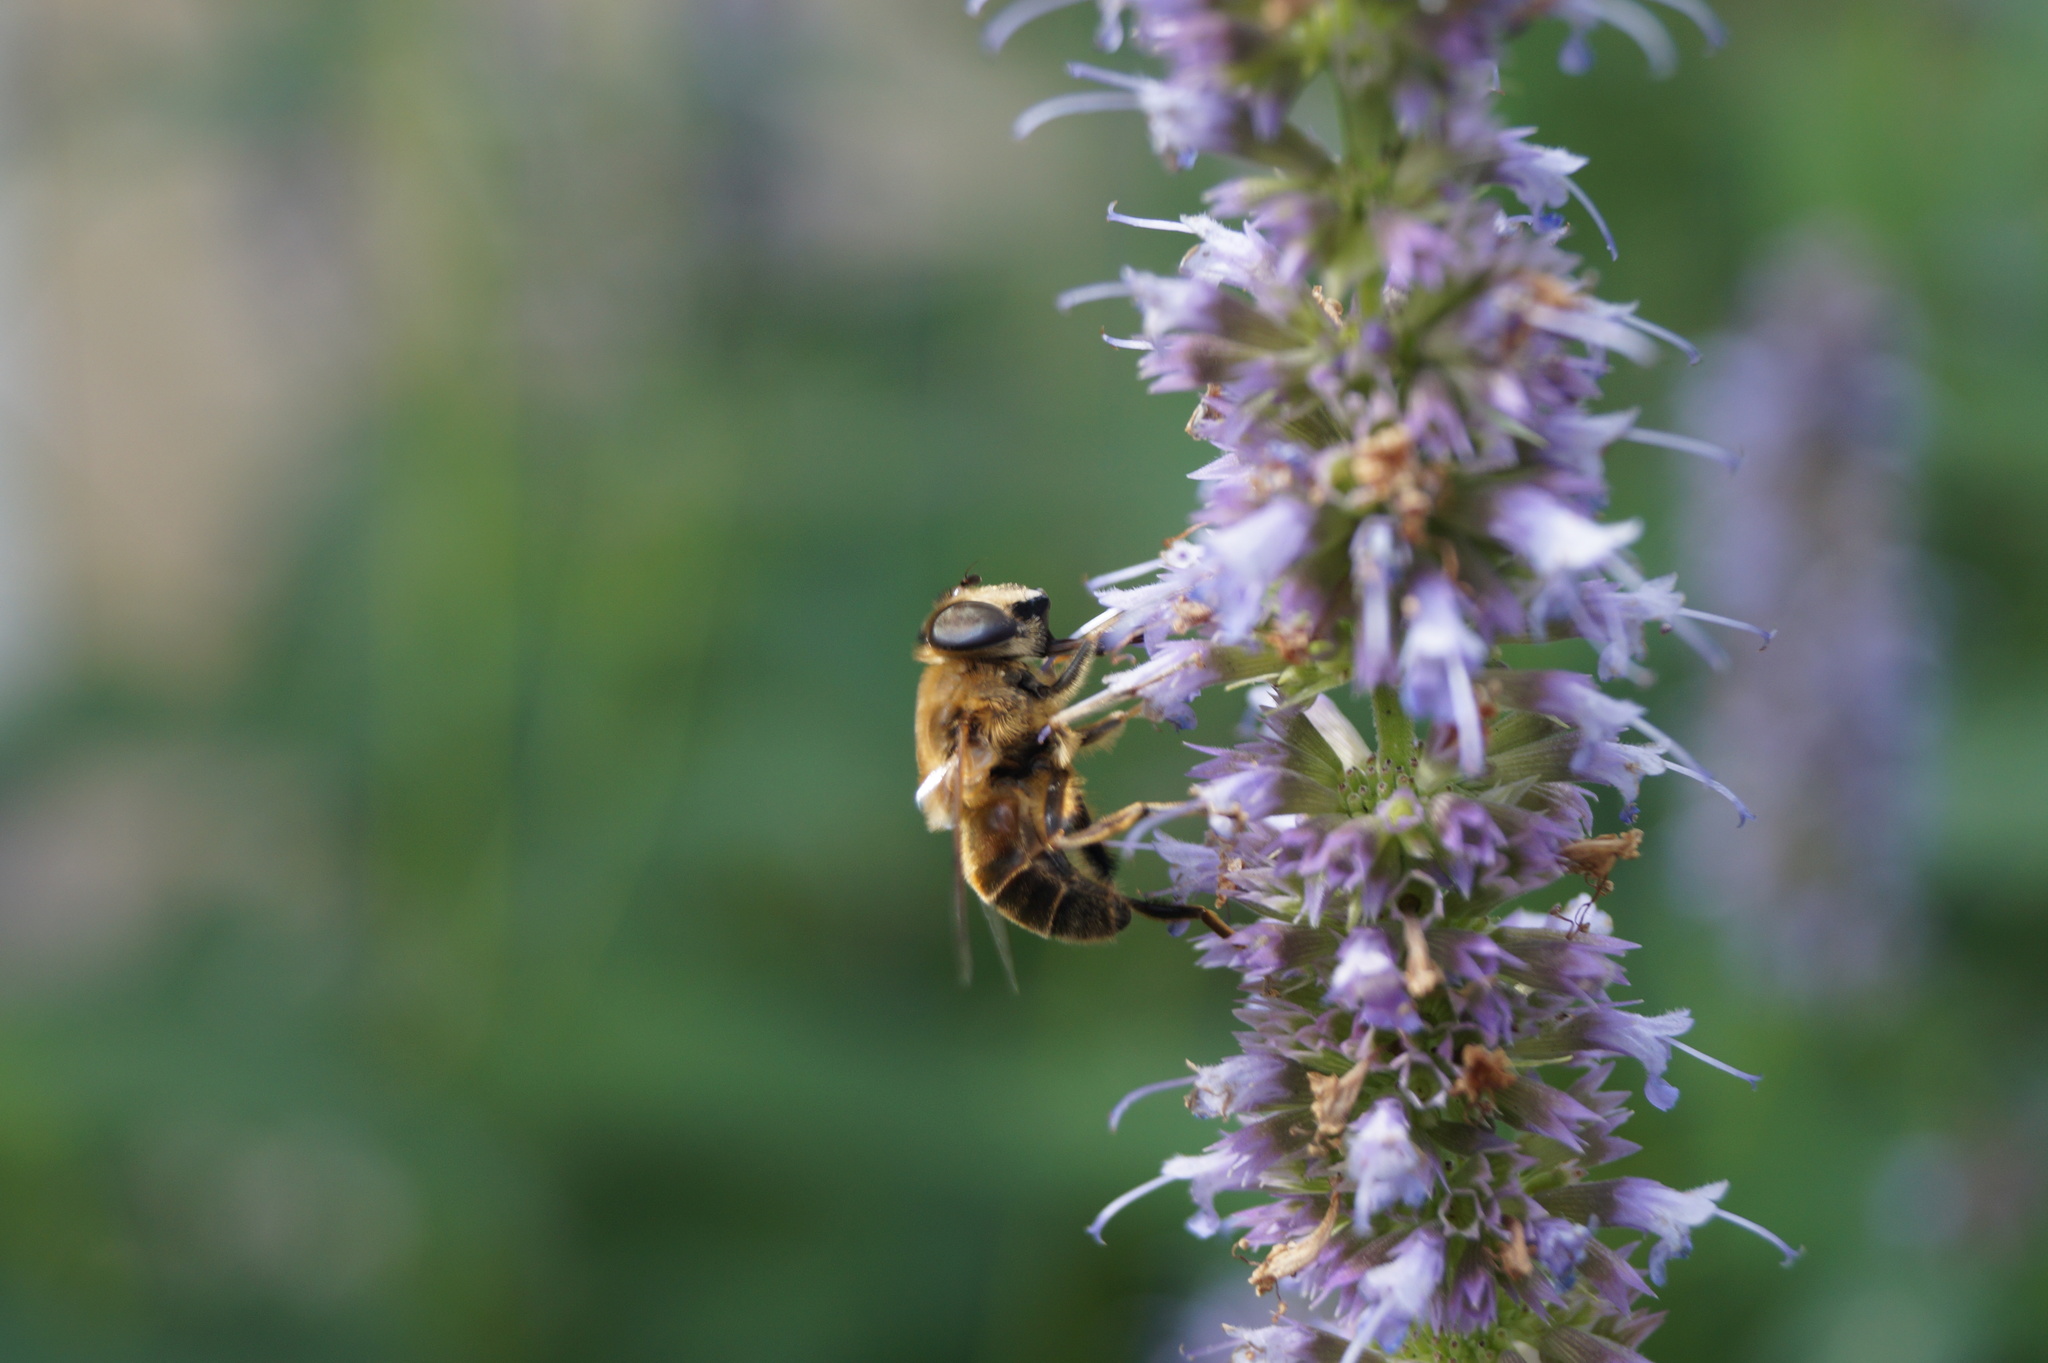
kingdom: Animalia
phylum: Arthropoda
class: Insecta
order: Diptera
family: Syrphidae
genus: Eristalis
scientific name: Eristalis tenax
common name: Drone fly
